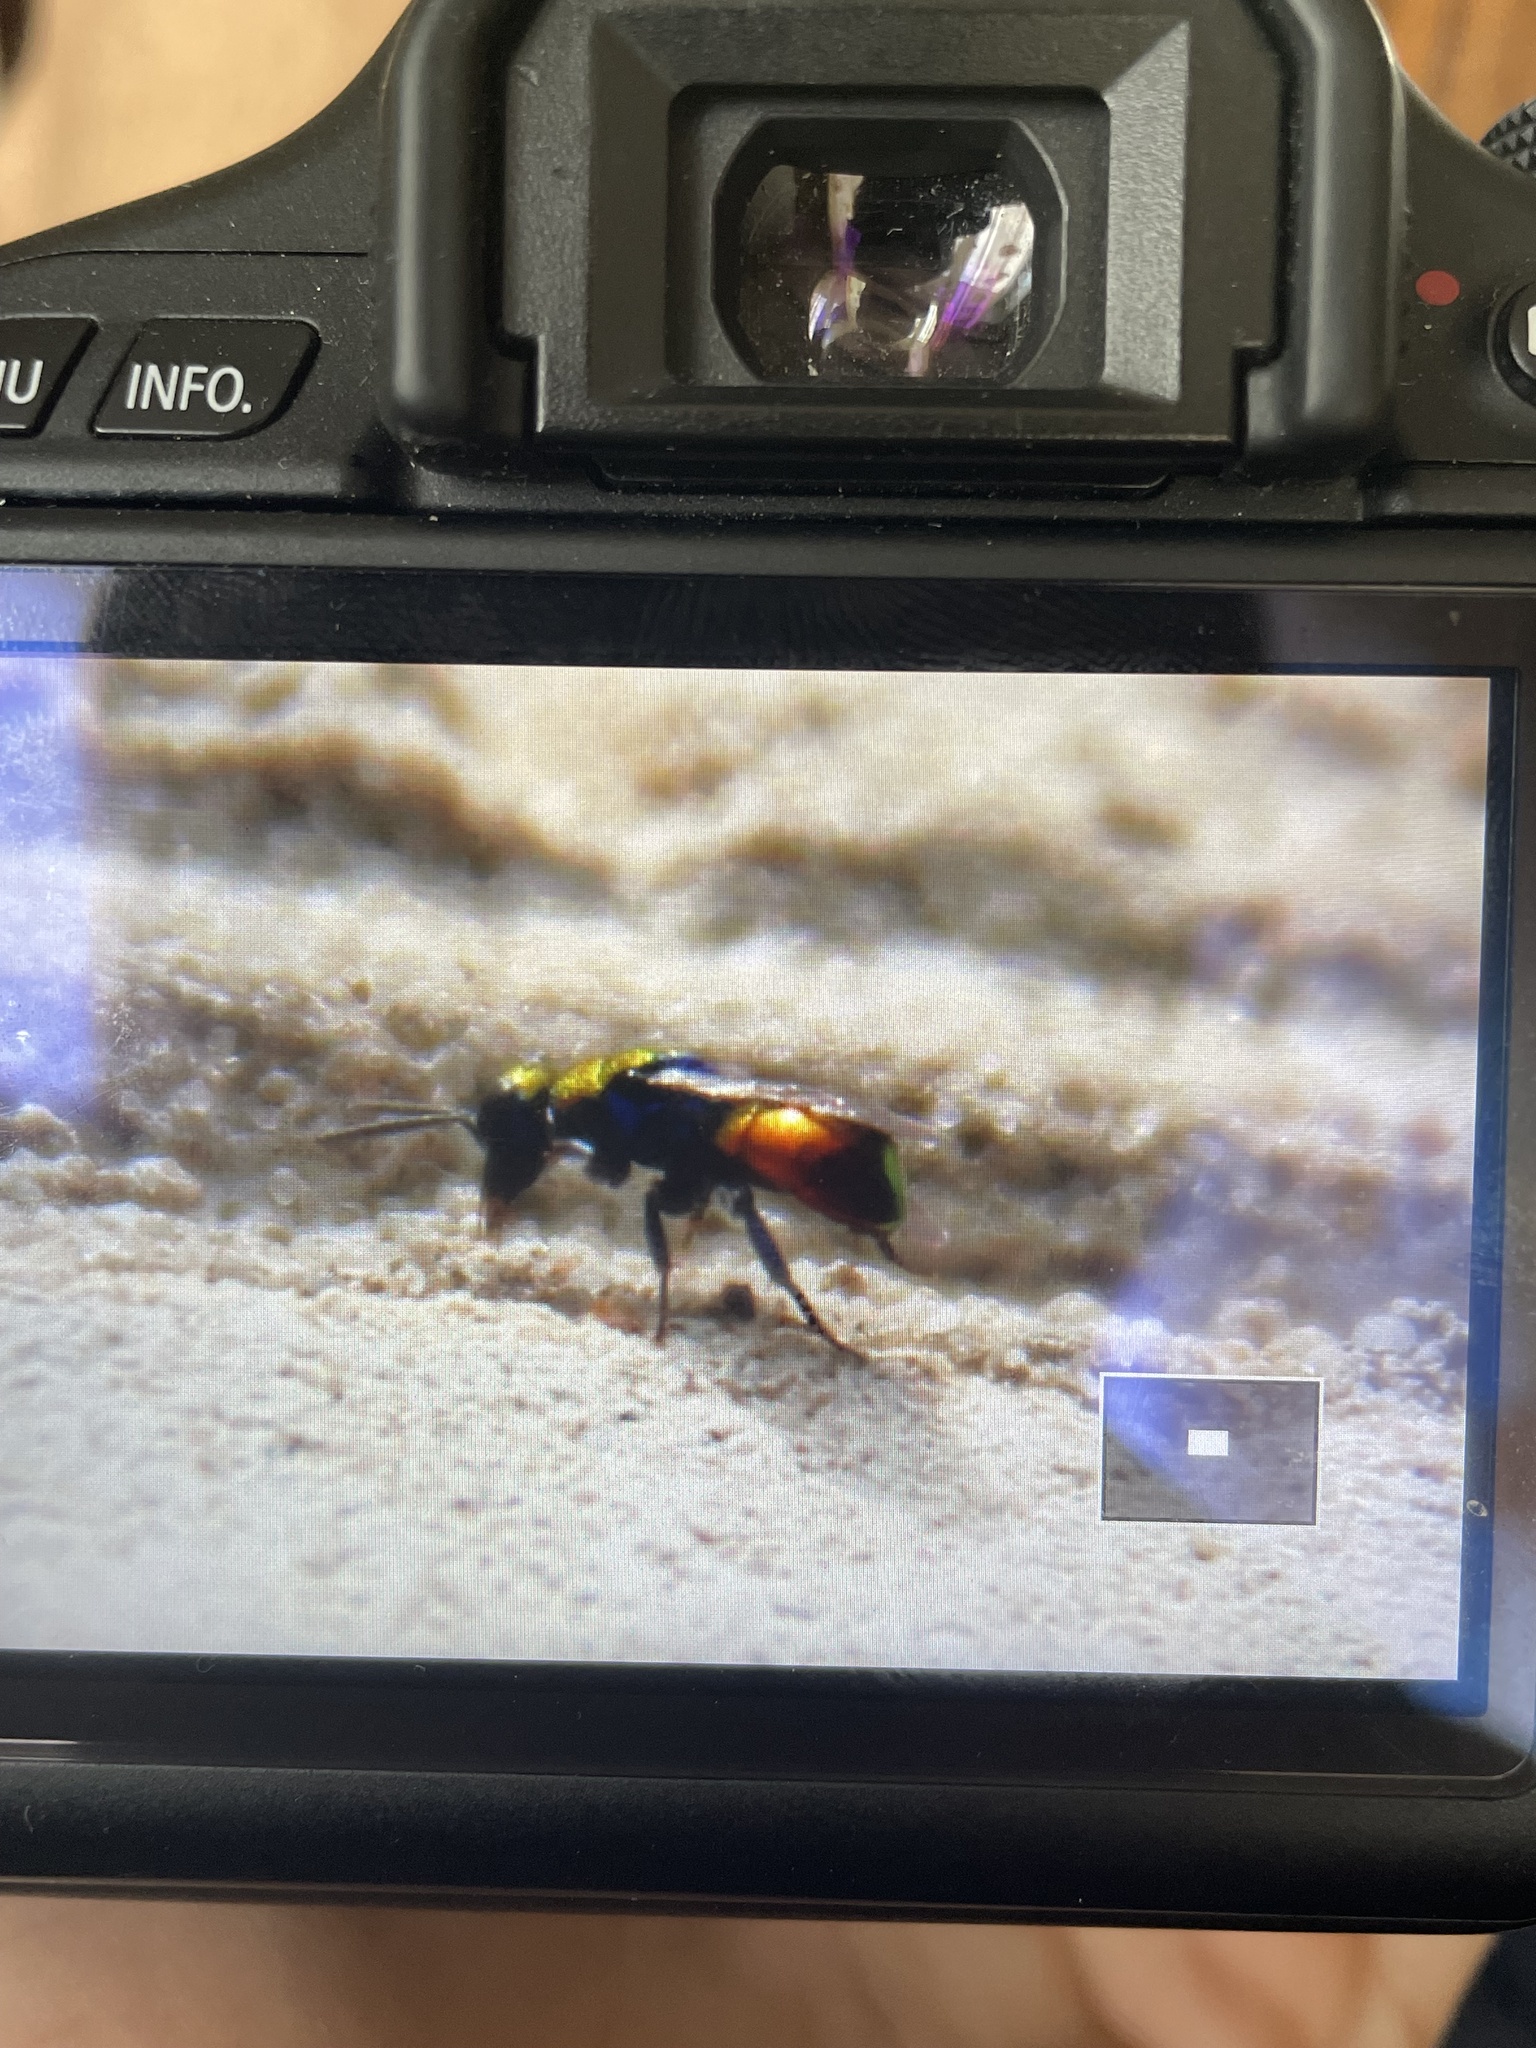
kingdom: Animalia
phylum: Arthropoda
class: Insecta
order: Hymenoptera
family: Chrysididae
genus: Hedychrum
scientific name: Hedychrum chalybaeum
